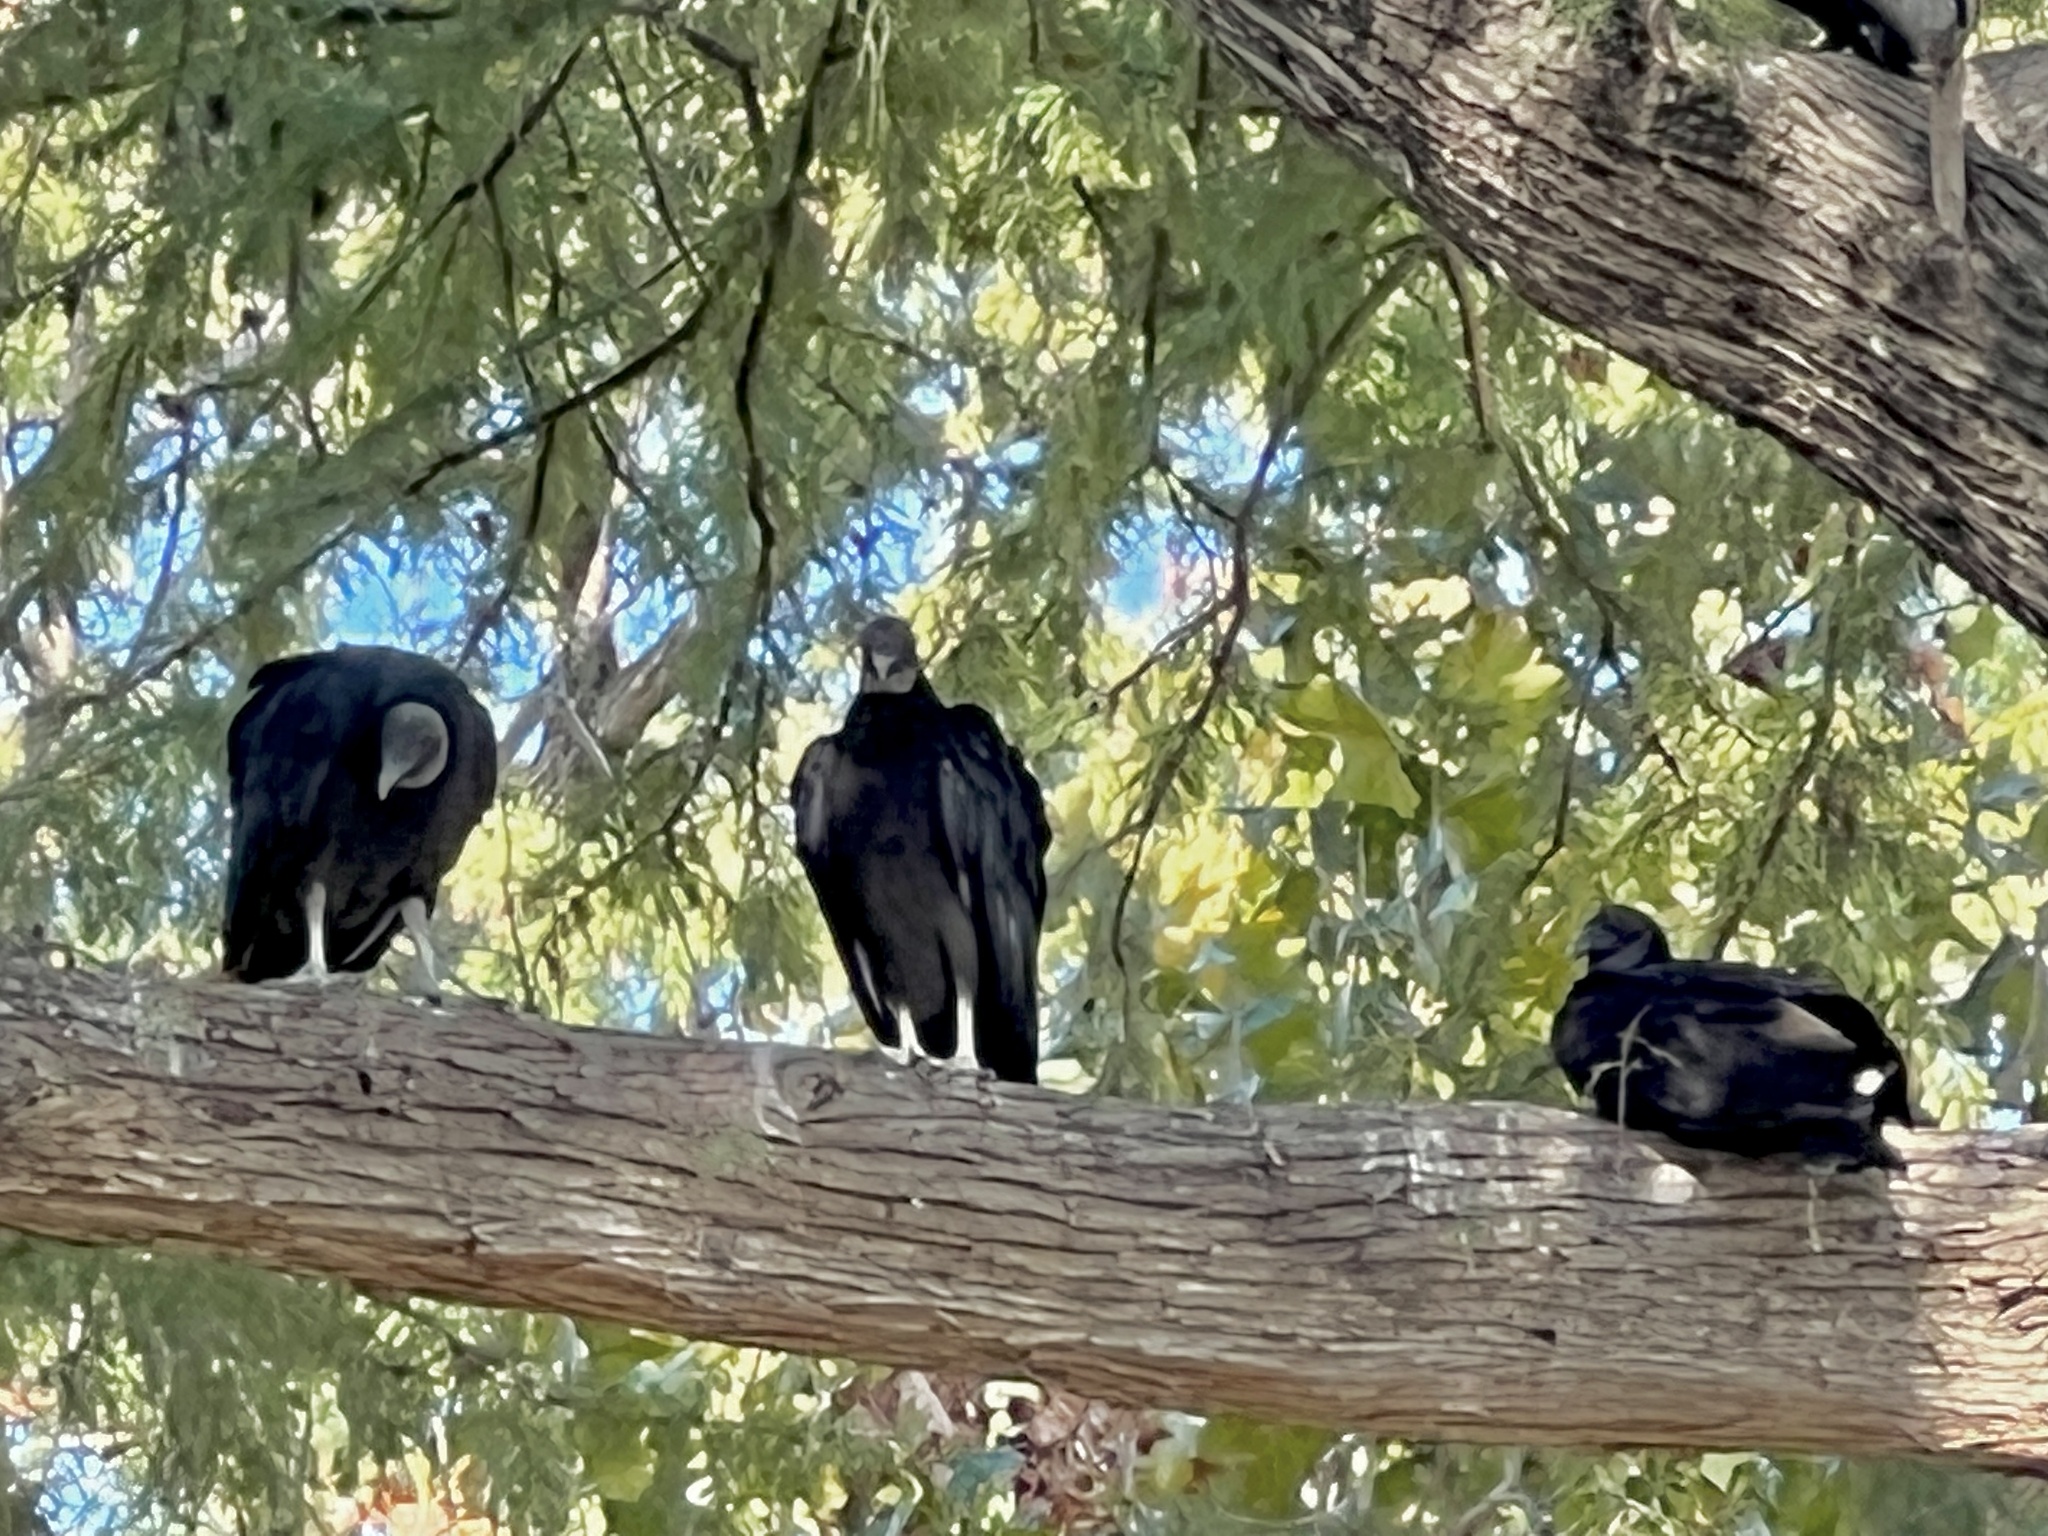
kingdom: Animalia
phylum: Chordata
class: Aves
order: Accipitriformes
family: Cathartidae
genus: Coragyps
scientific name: Coragyps atratus
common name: Black vulture
